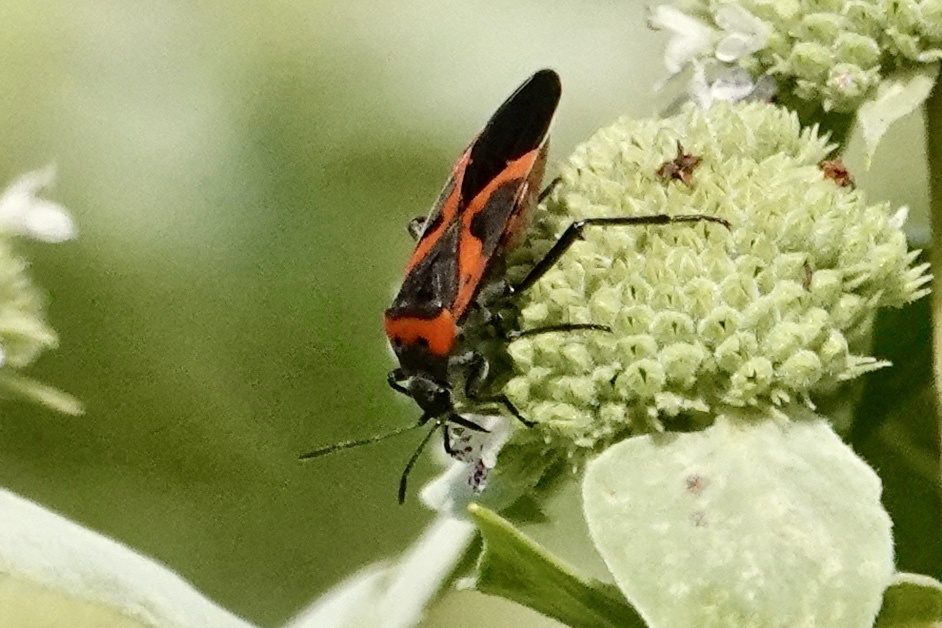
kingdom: Animalia
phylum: Arthropoda
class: Insecta
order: Hemiptera
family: Lygaeidae
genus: Lygaeus
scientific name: Lygaeus kalmii
